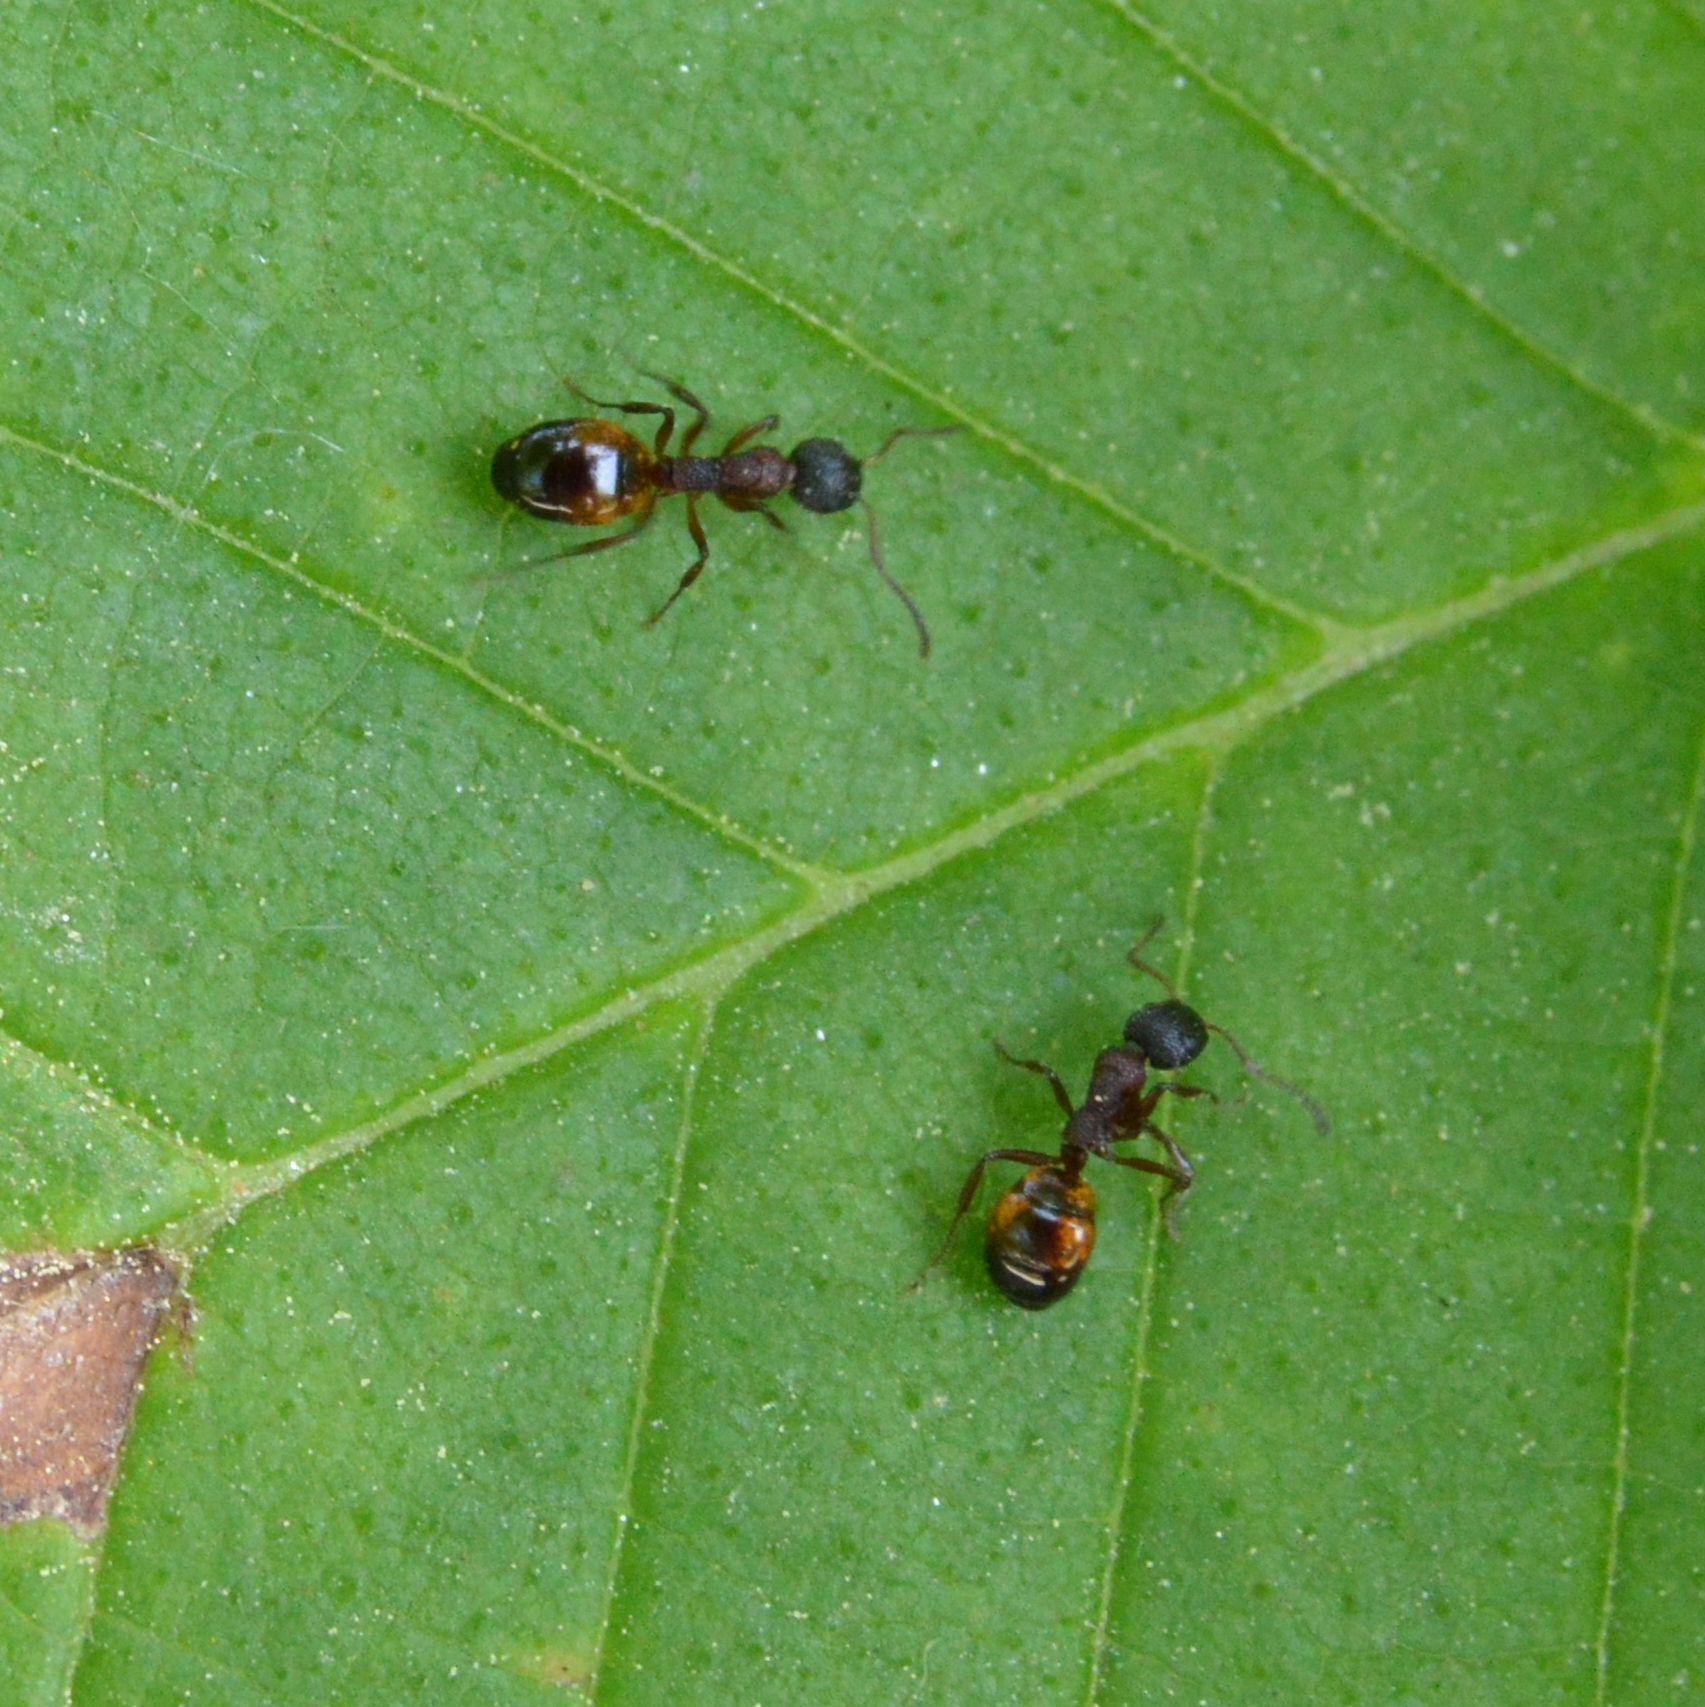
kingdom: Animalia
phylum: Arthropoda
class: Insecta
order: Hymenoptera
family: Formicidae
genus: Dolichoderus
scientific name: Dolichoderus plagiatus
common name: Mottled dolichoderus
